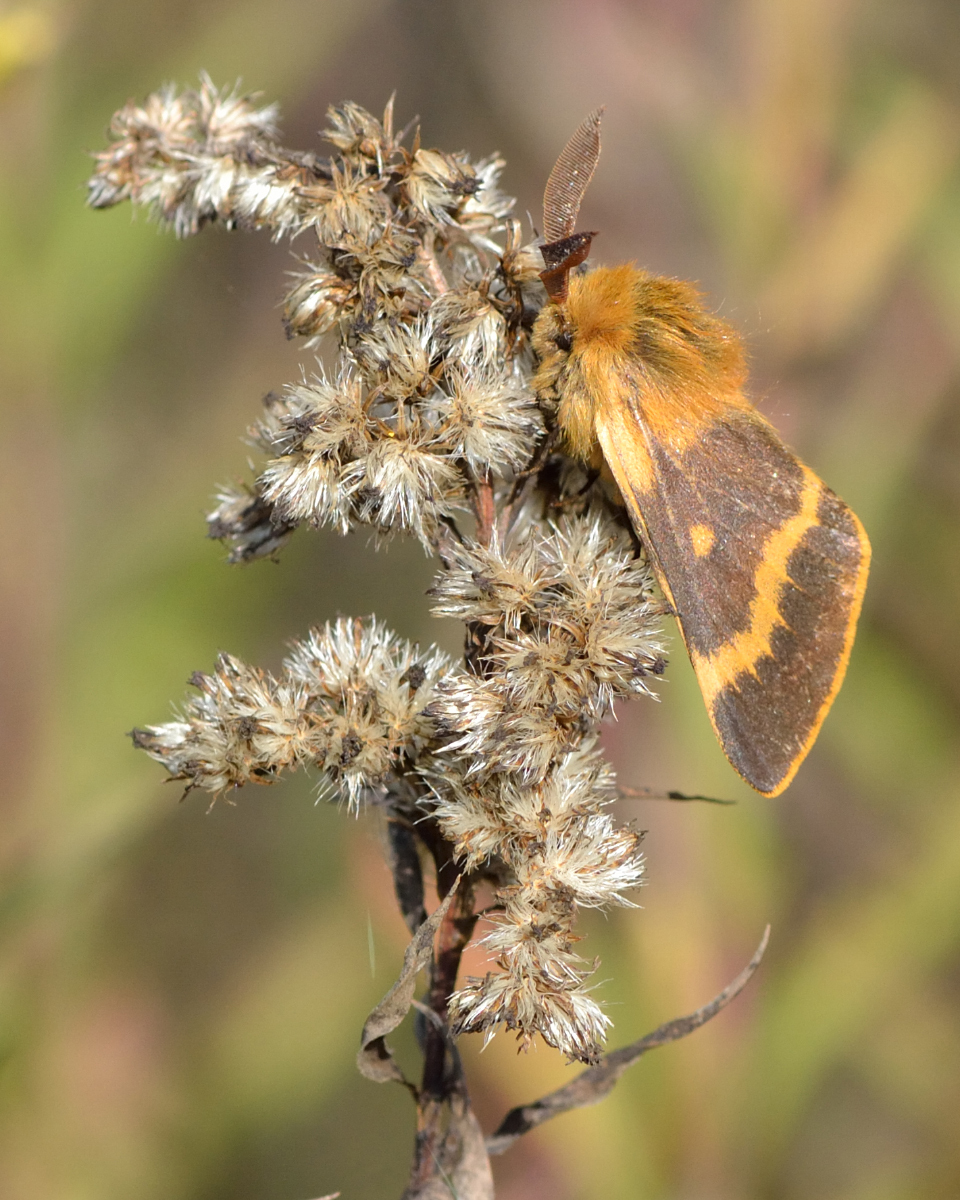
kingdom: Animalia
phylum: Arthropoda
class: Insecta
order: Lepidoptera
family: Brahmaeidae
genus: Lemonia
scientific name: Lemonia dumi
